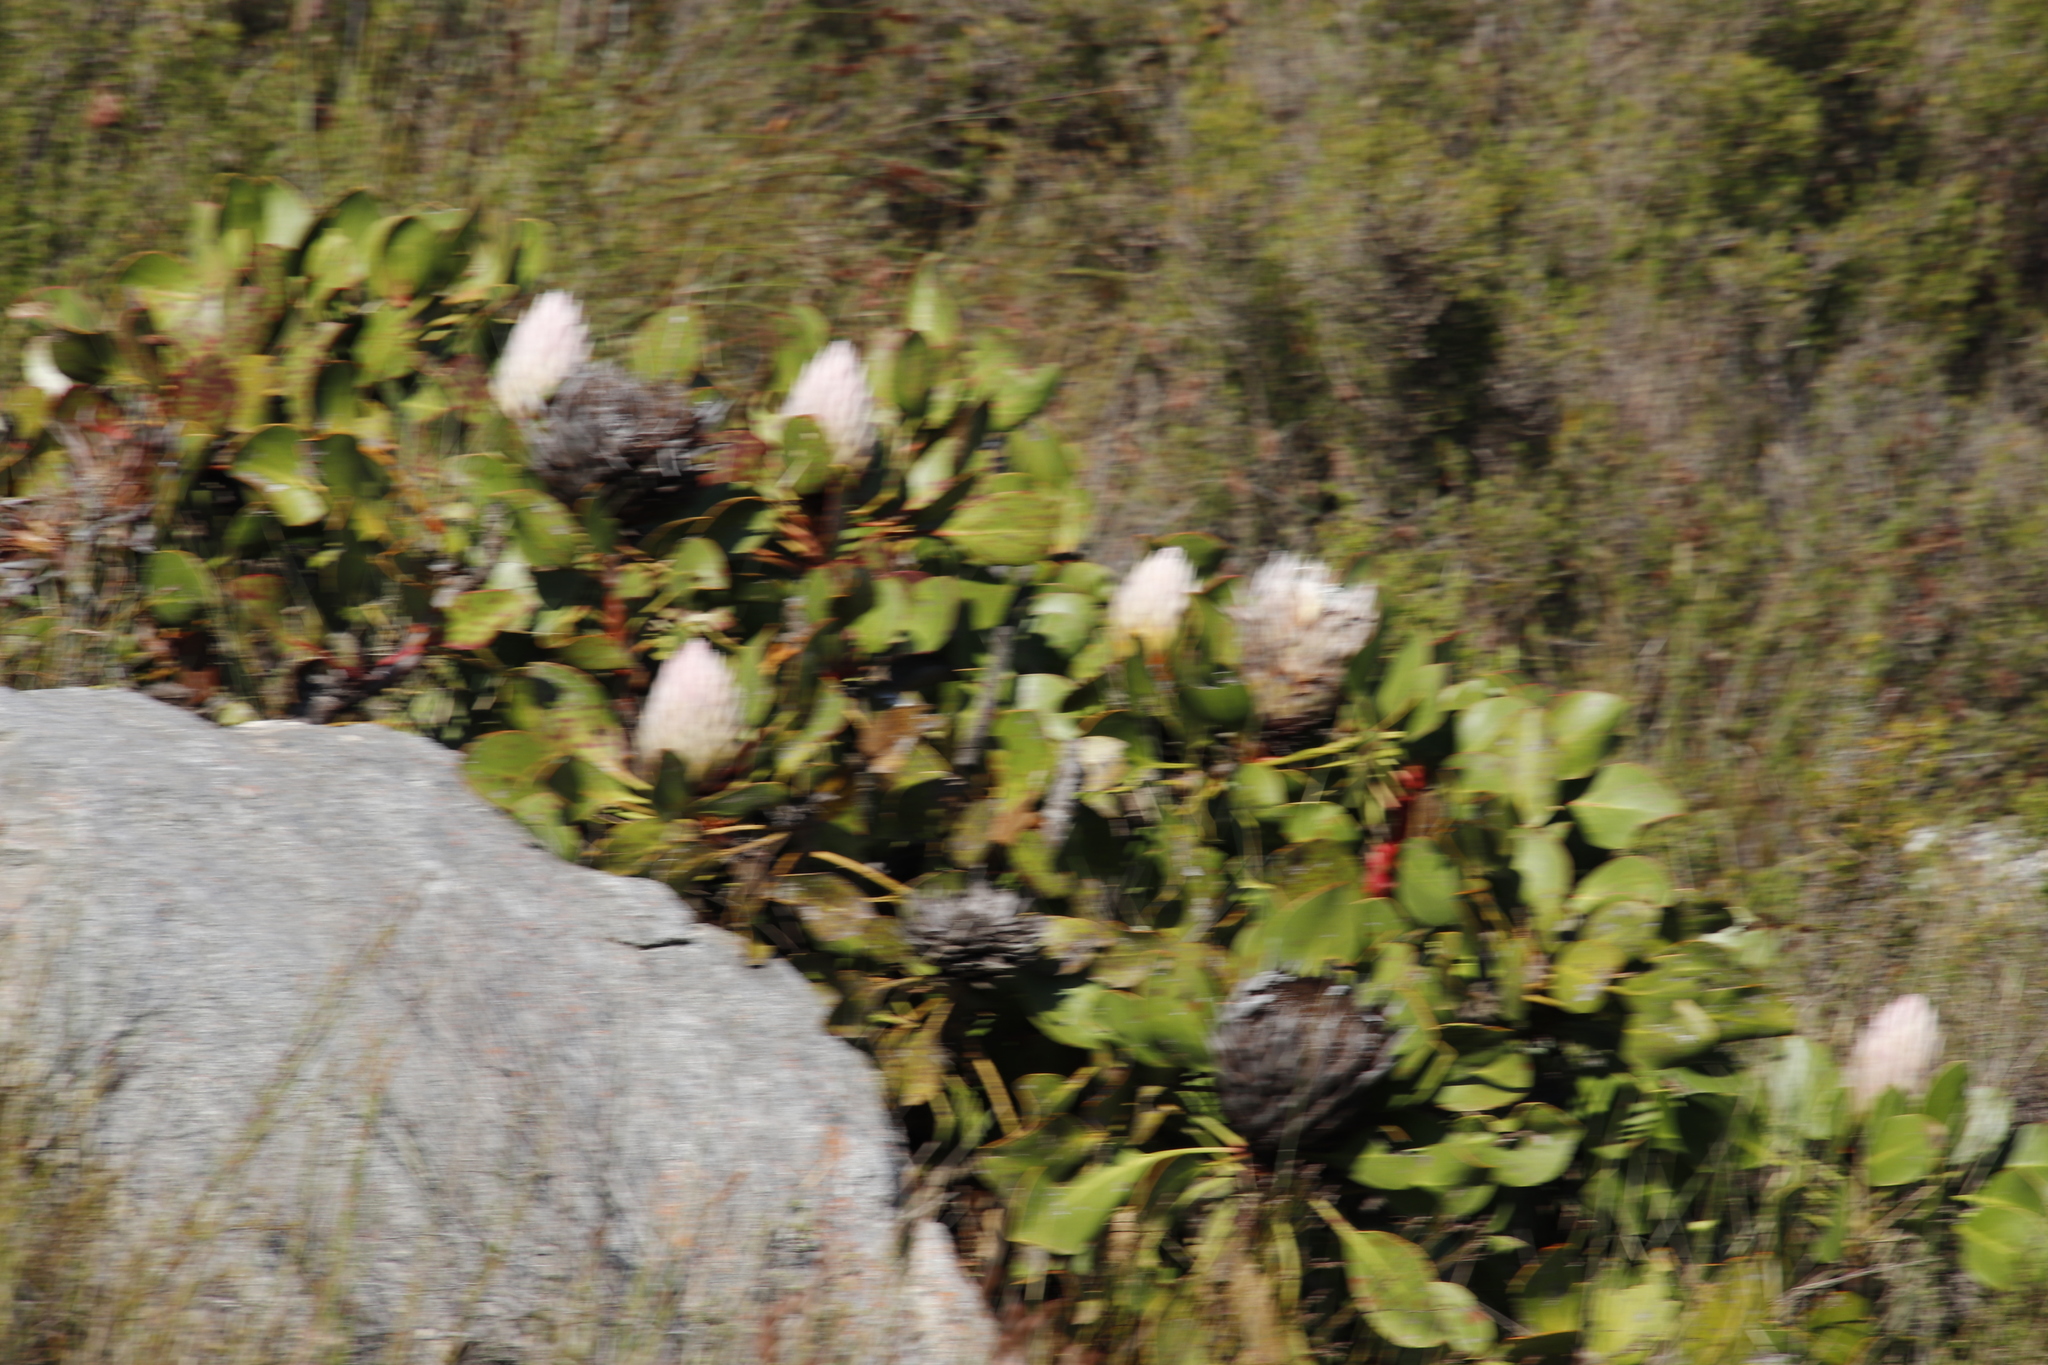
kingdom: Plantae
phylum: Tracheophyta
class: Magnoliopsida
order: Proteales
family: Proteaceae
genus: Protea
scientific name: Protea cynaroides
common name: King protea
